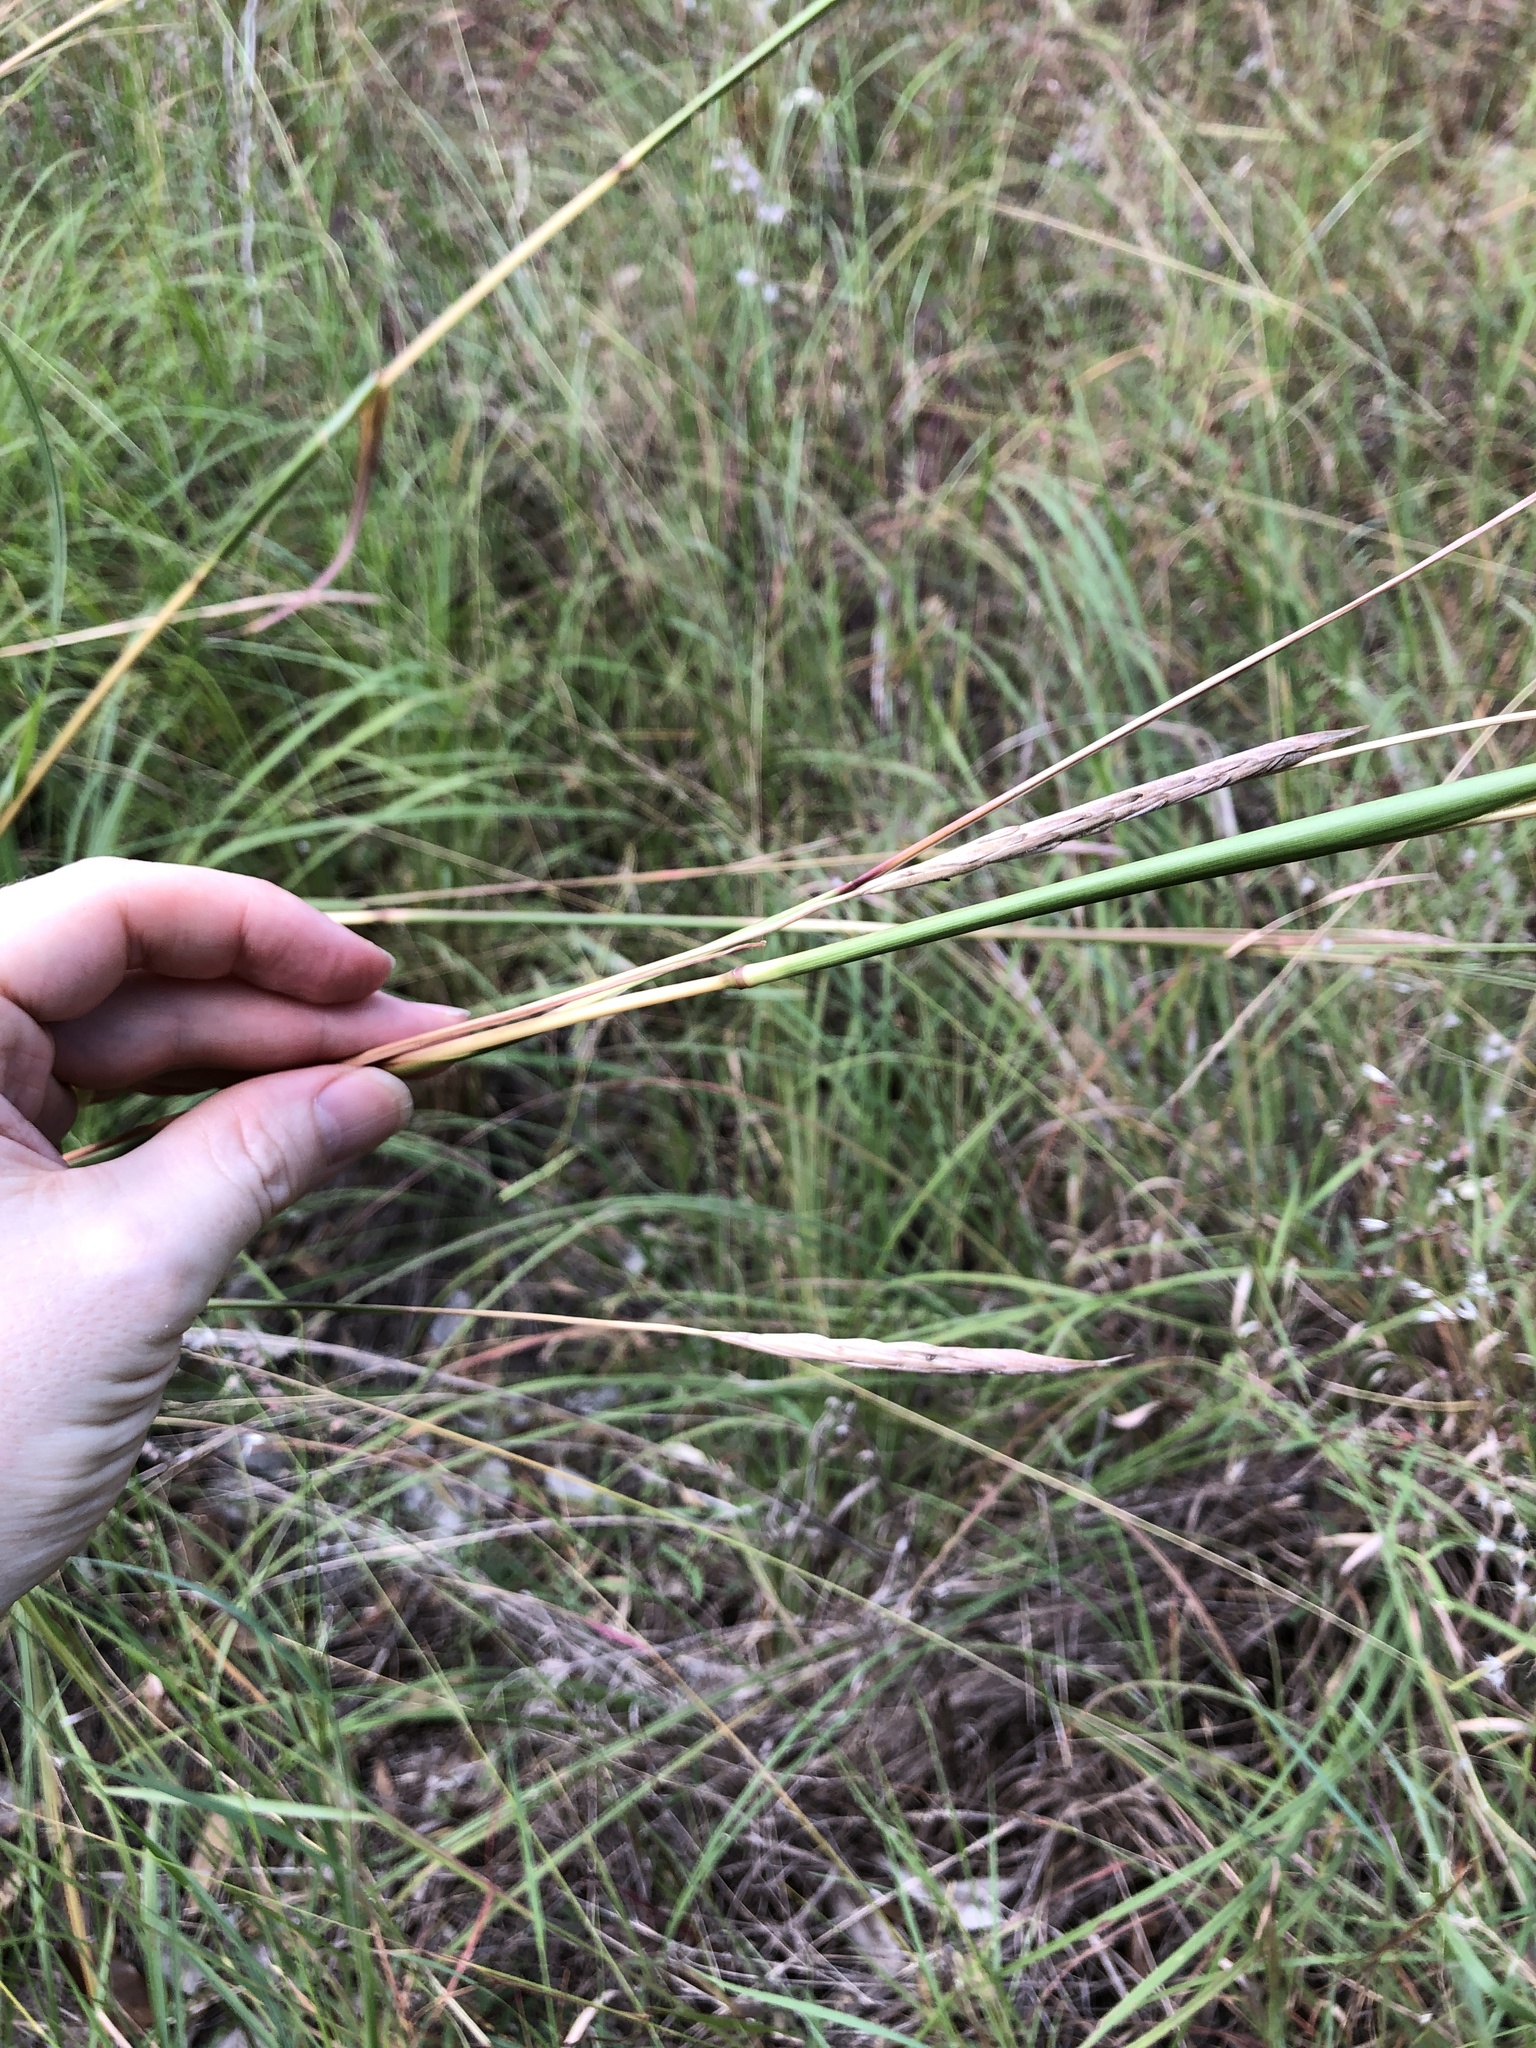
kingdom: Plantae
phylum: Tracheophyta
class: Liliopsida
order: Poales
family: Poaceae
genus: Heteropogon
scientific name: Heteropogon triticeus
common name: Sugar grass
